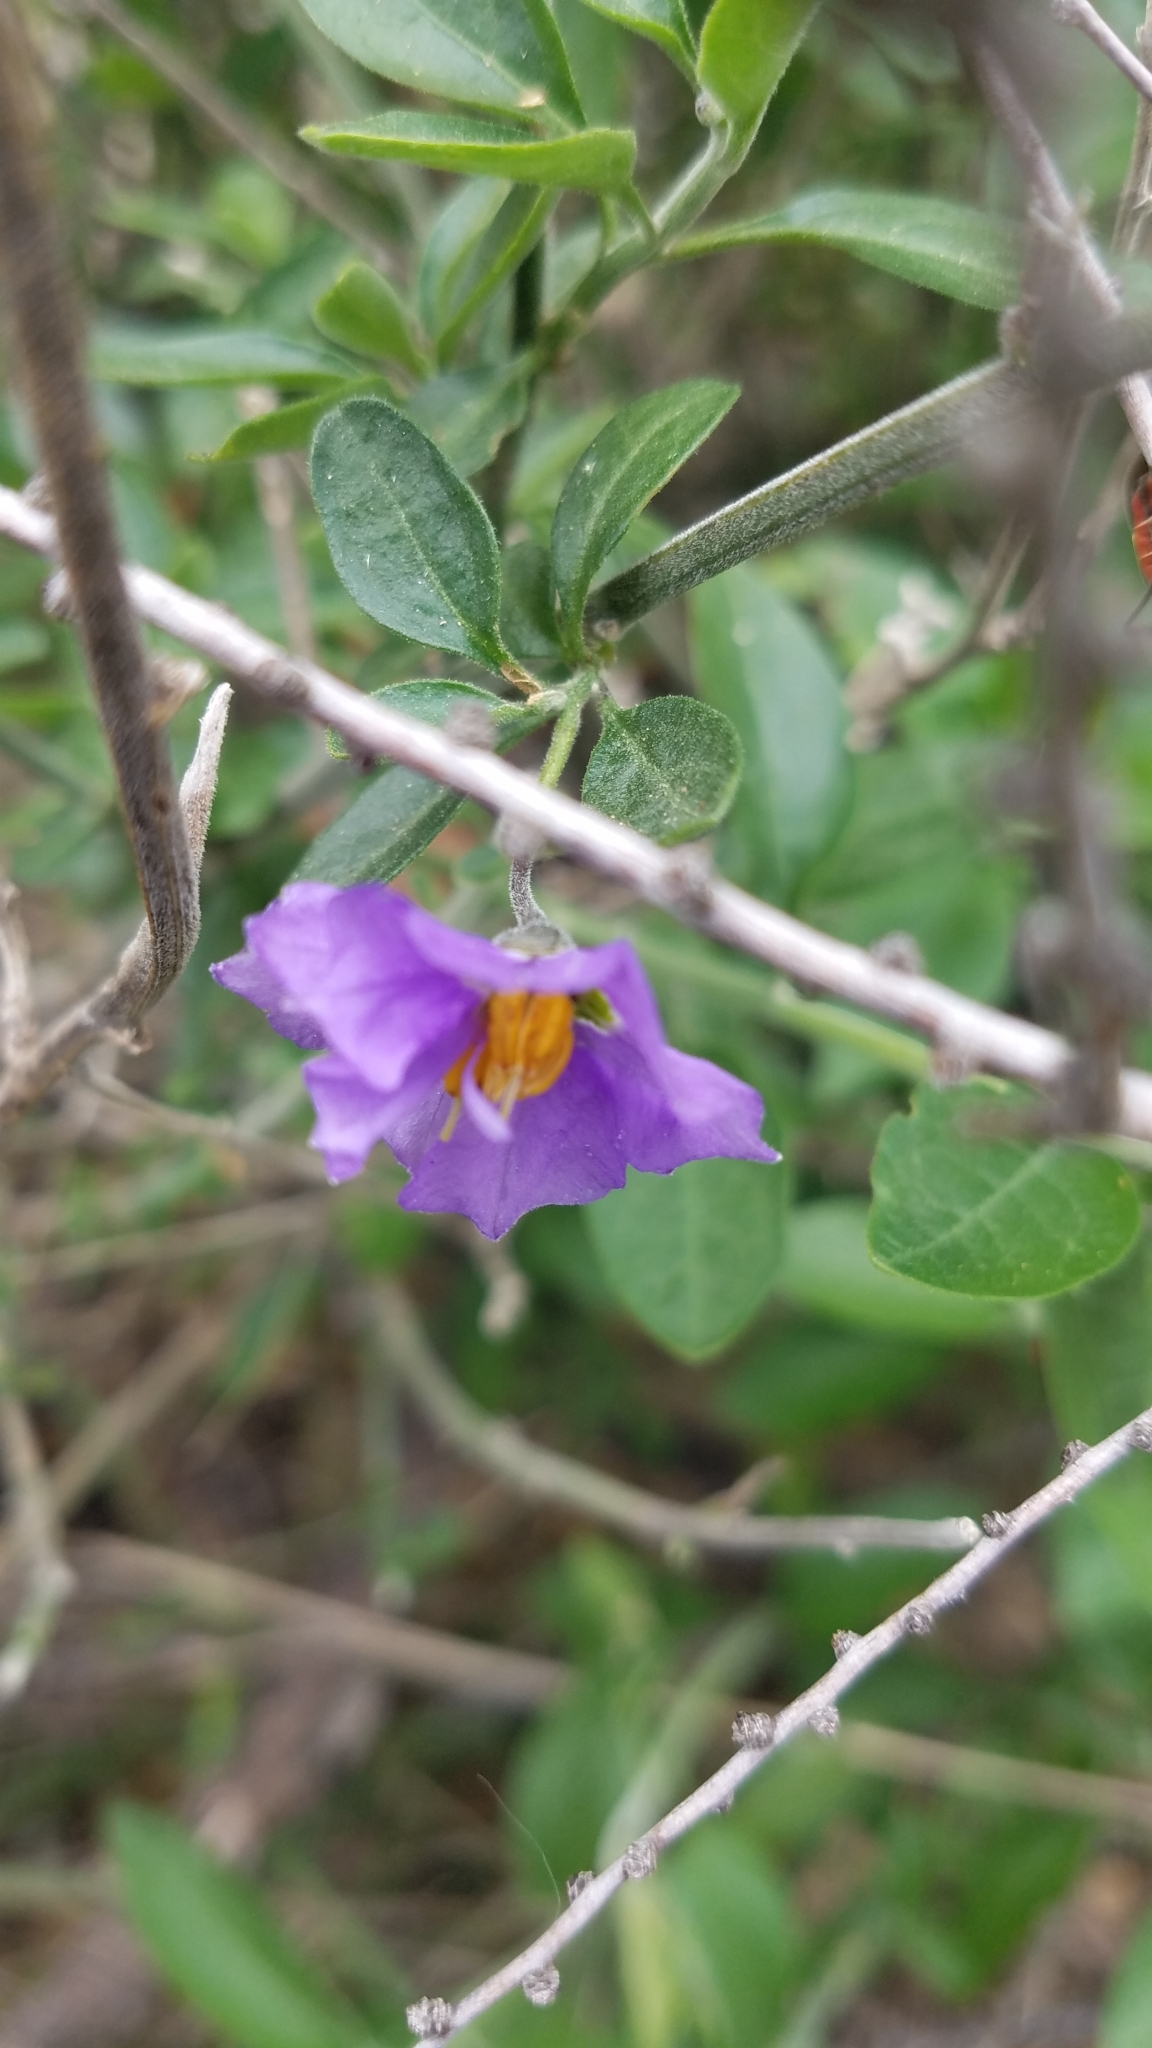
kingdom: Plantae
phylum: Tracheophyta
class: Magnoliopsida
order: Solanales
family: Solanaceae
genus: Solanum
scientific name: Solanum umbelliferum
